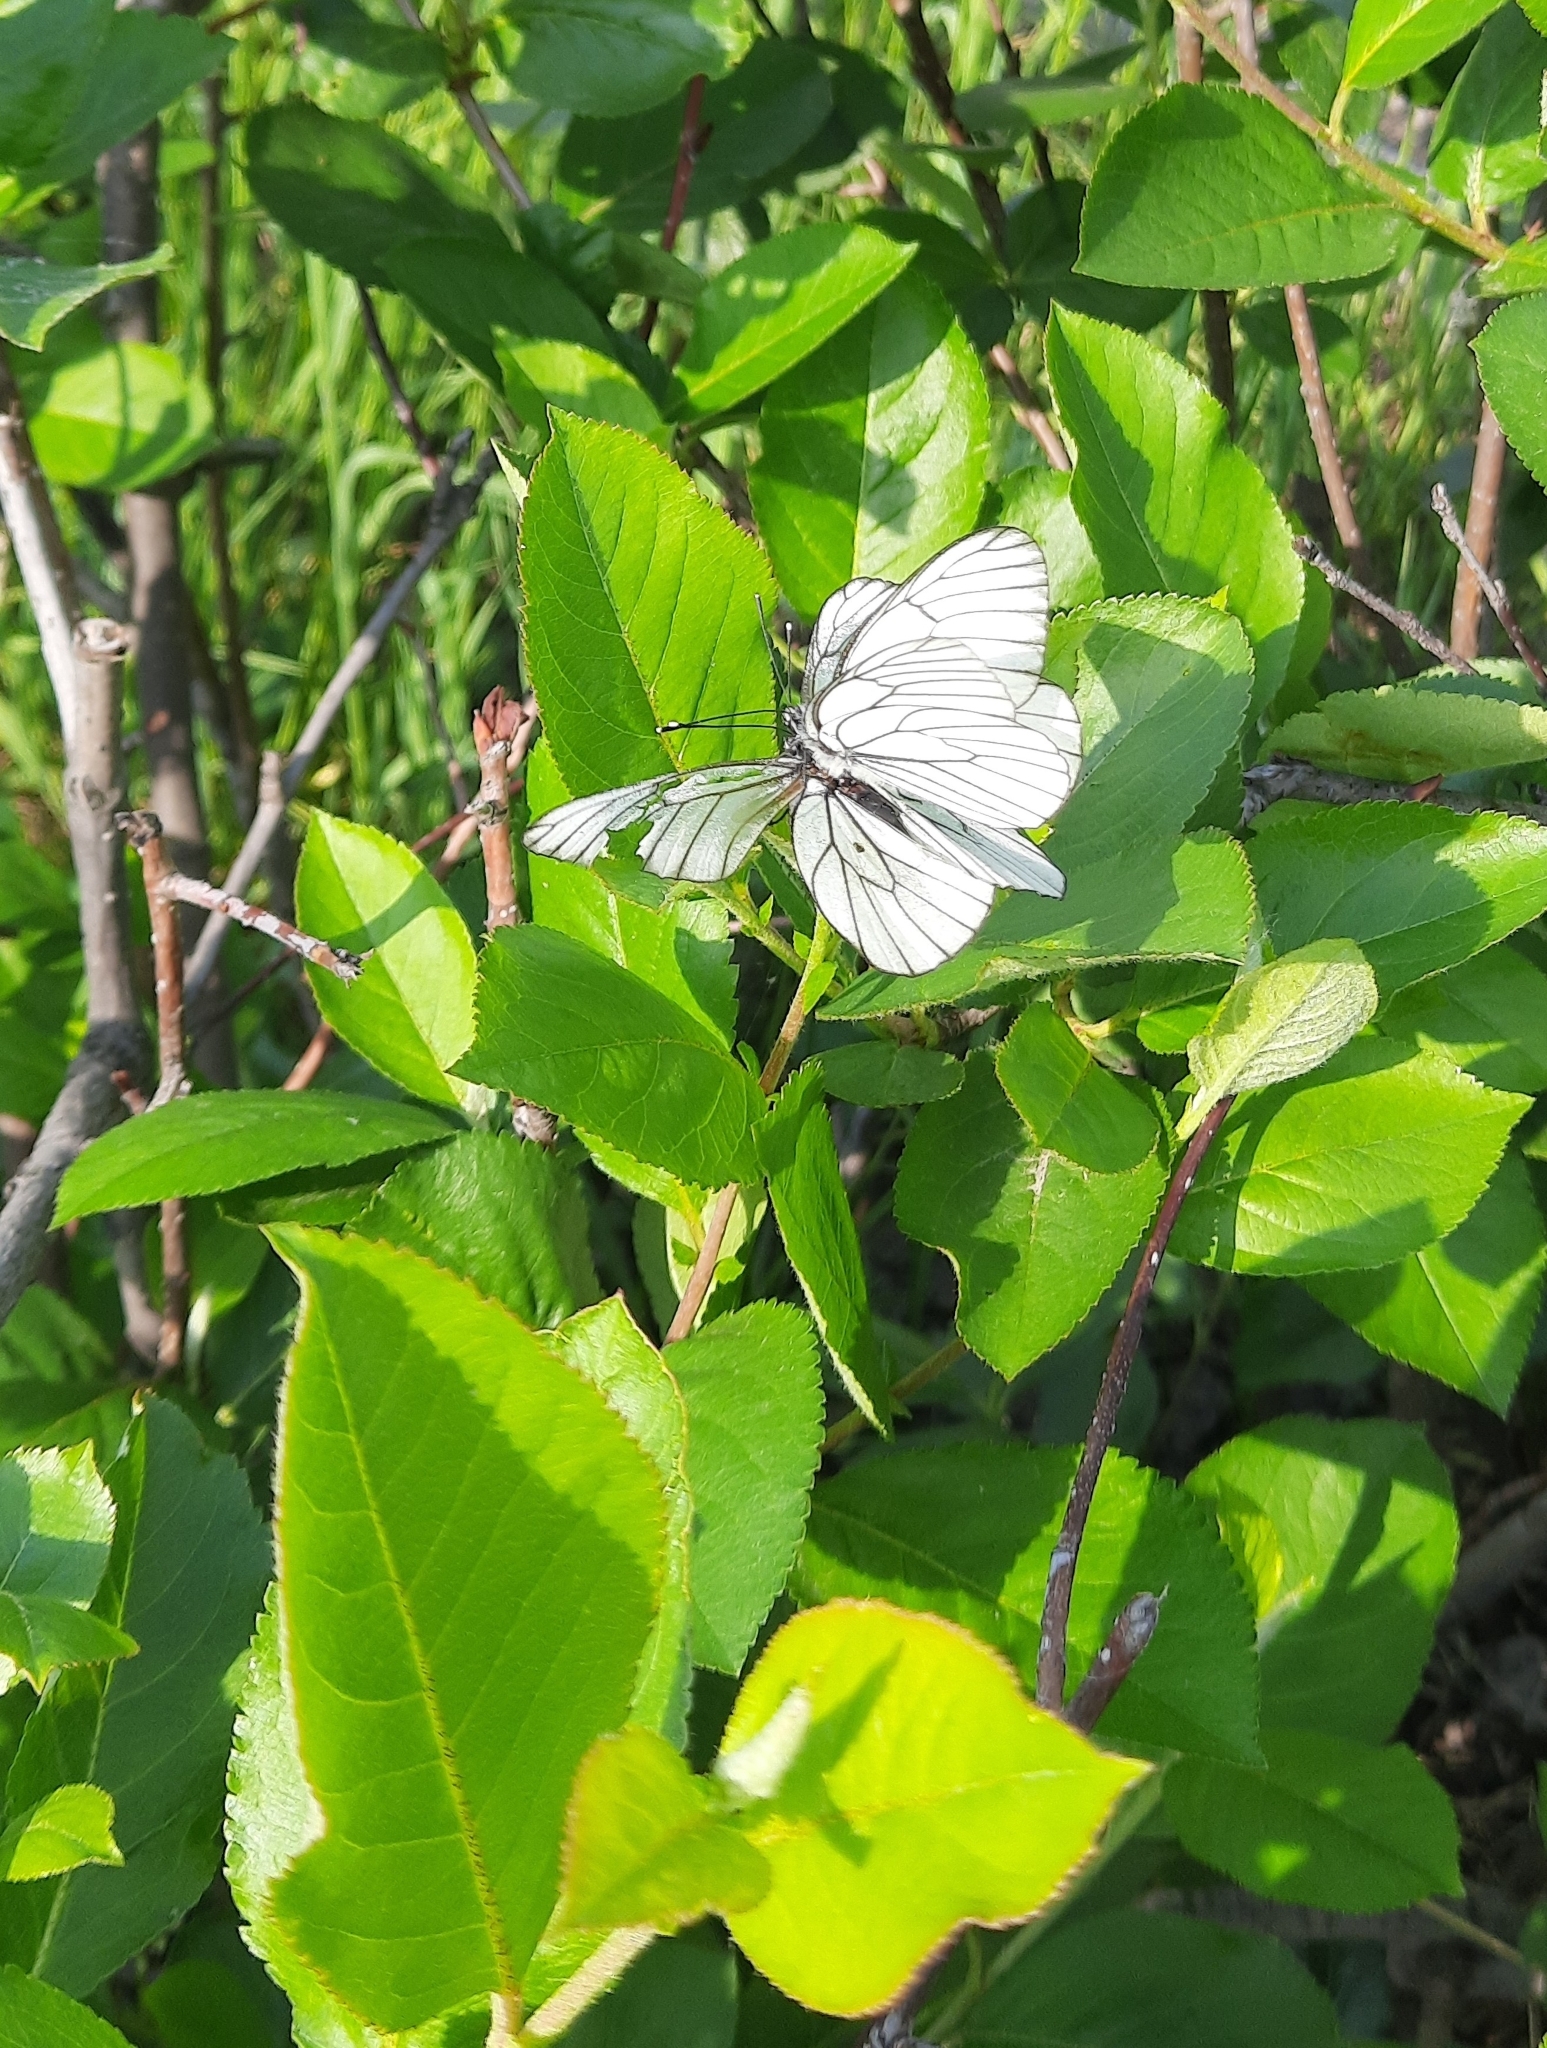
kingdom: Animalia
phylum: Arthropoda
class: Insecta
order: Lepidoptera
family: Pieridae
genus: Aporia
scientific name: Aporia crataegi
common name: Black-veined white
